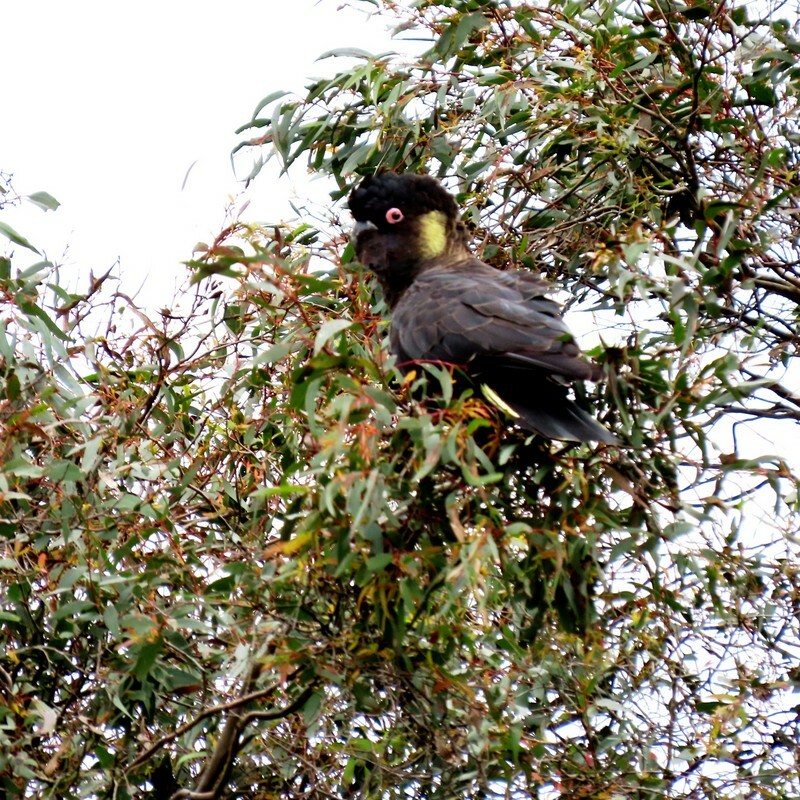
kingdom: Animalia
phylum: Chordata
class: Aves
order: Psittaciformes
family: Cacatuidae
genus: Zanda
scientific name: Zanda funerea
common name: Yellow-tailed black-cockatoo
